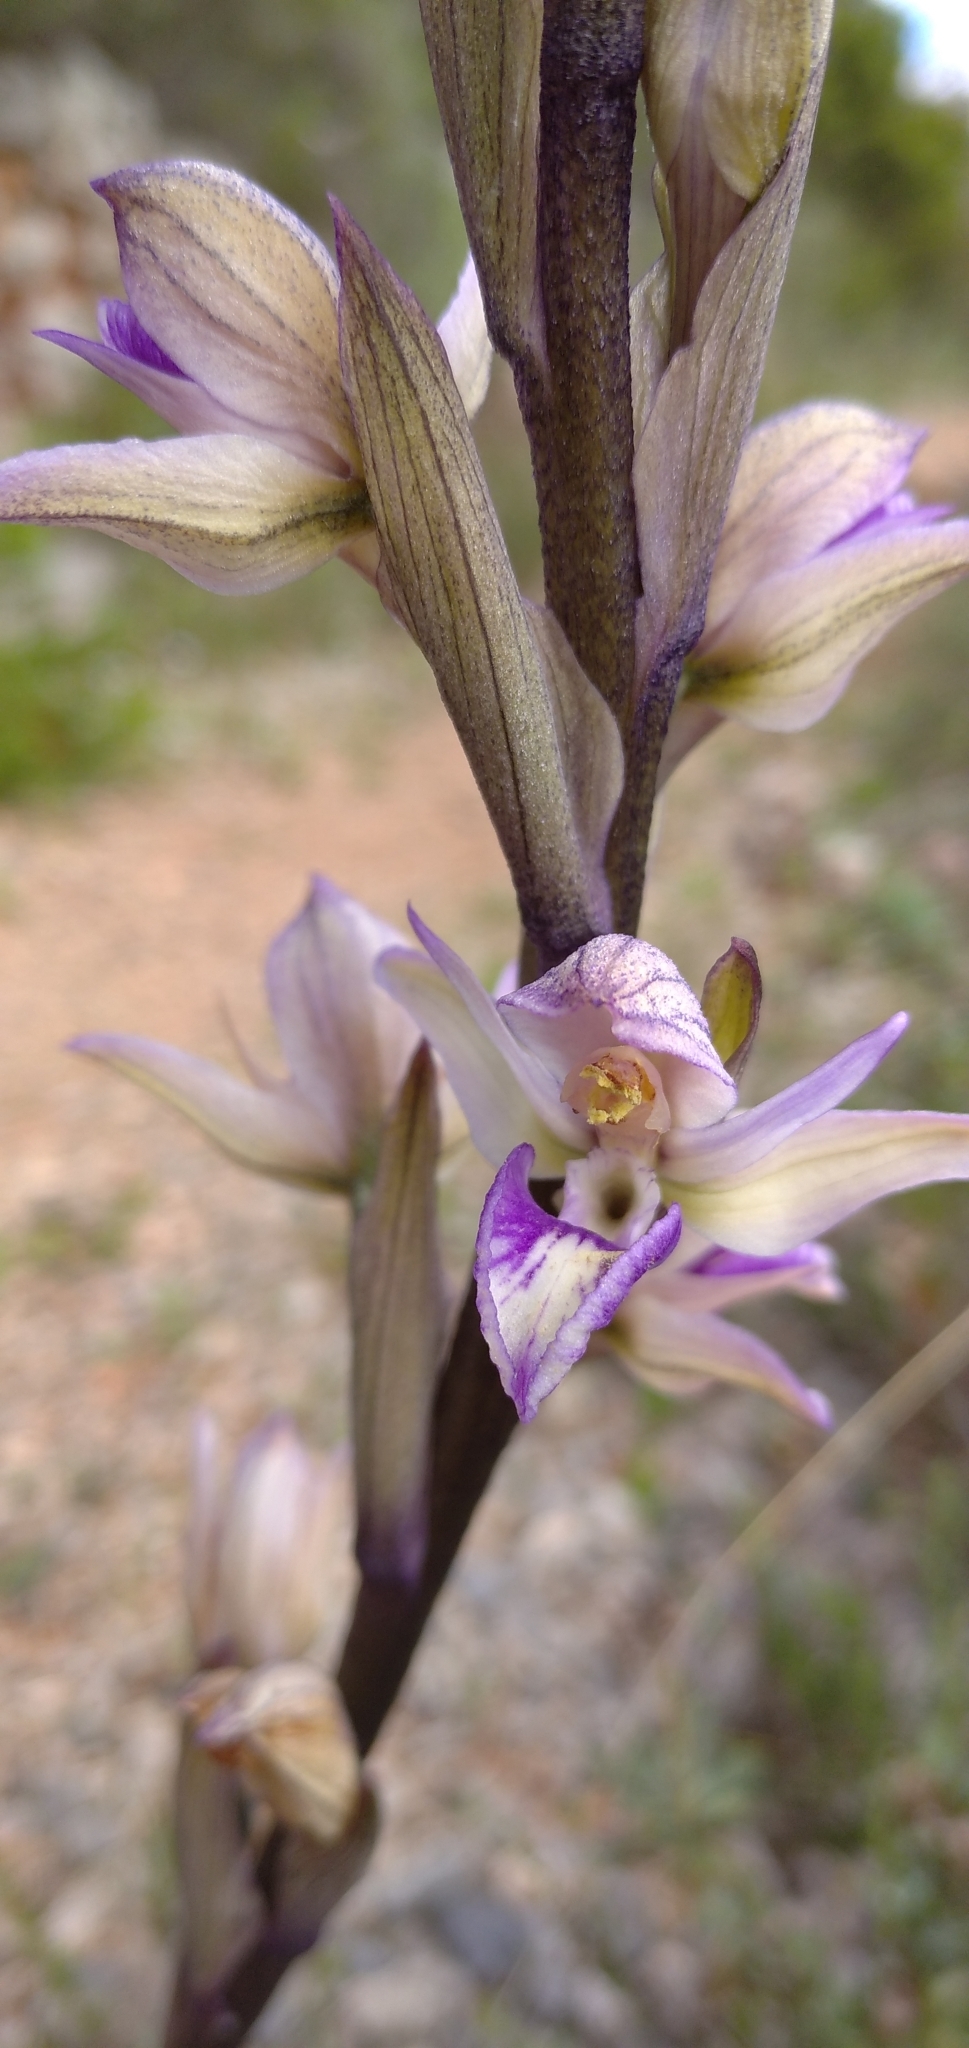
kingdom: Plantae
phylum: Tracheophyta
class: Liliopsida
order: Asparagales
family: Orchidaceae
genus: Limodorum
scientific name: Limodorum abortivum
